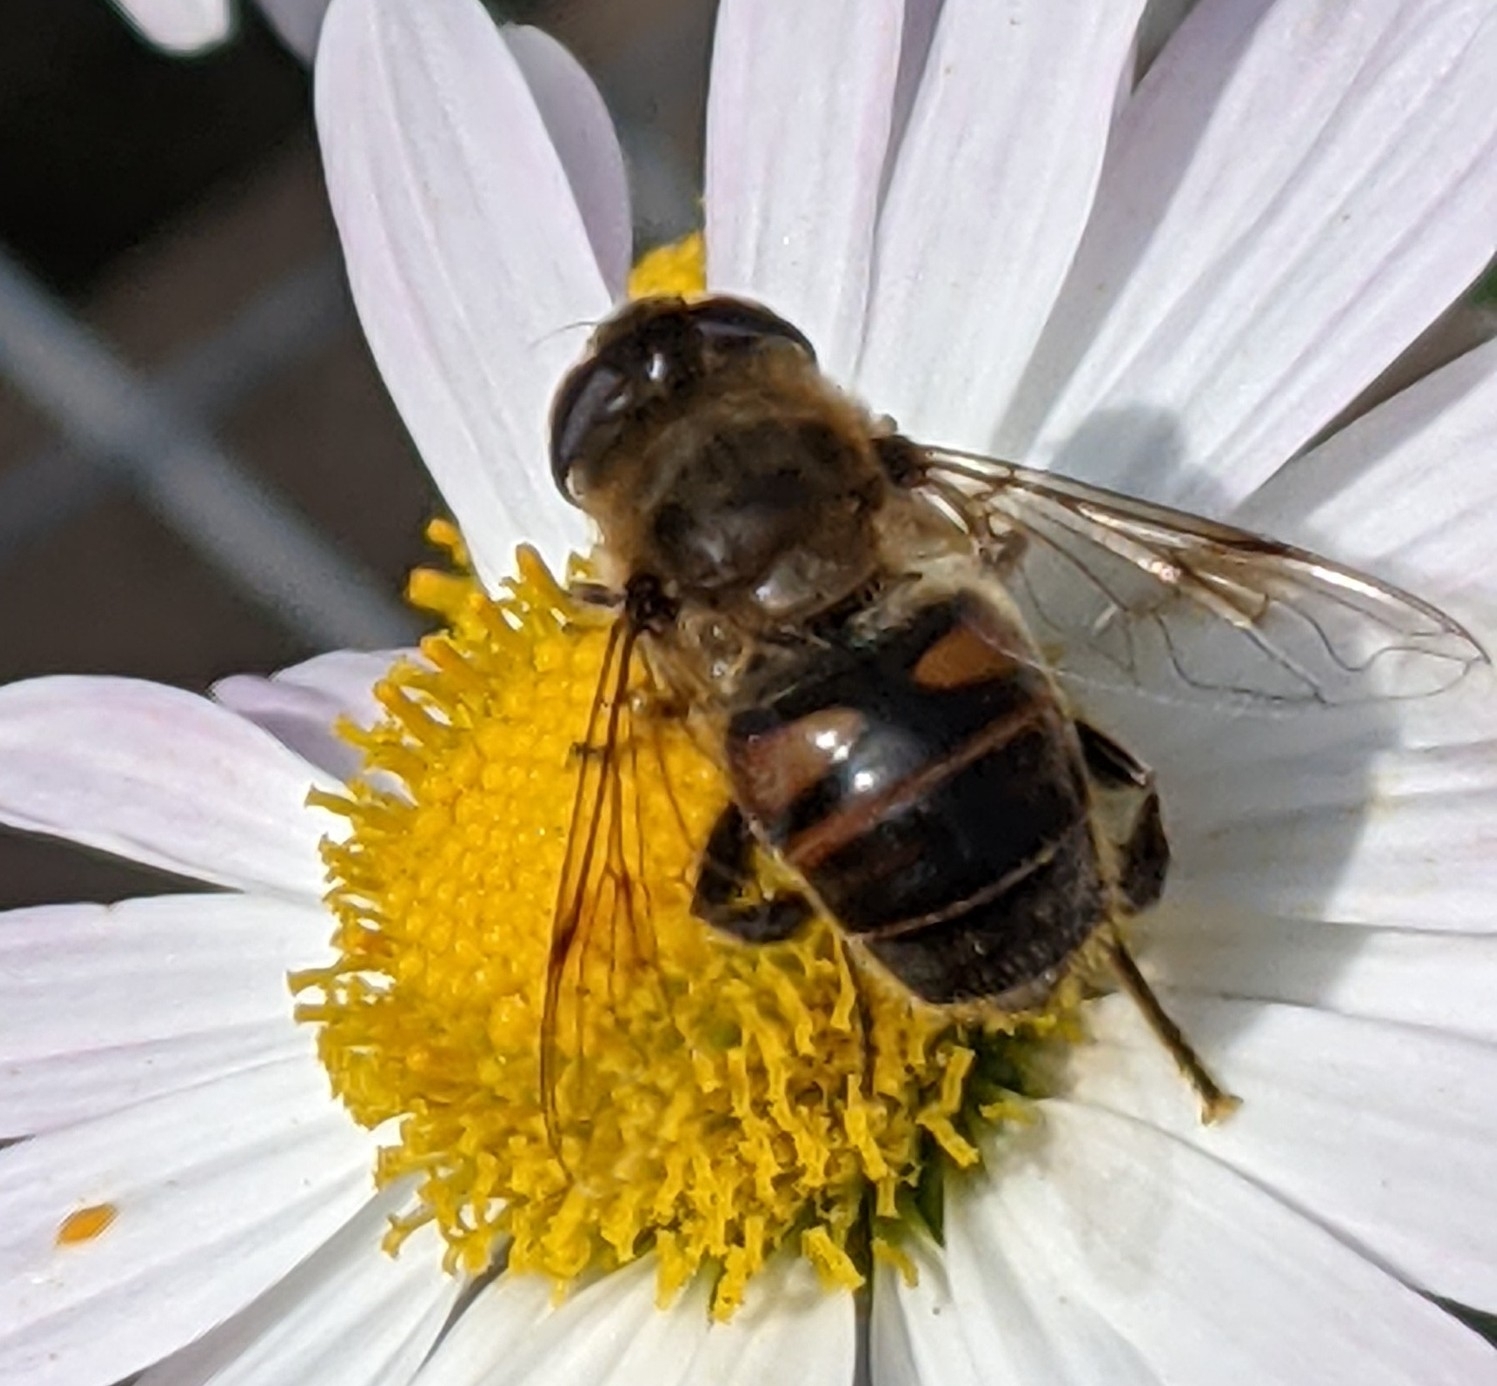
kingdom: Animalia
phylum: Arthropoda
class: Insecta
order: Diptera
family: Syrphidae
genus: Eristalis
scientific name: Eristalis tenax
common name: Drone fly
